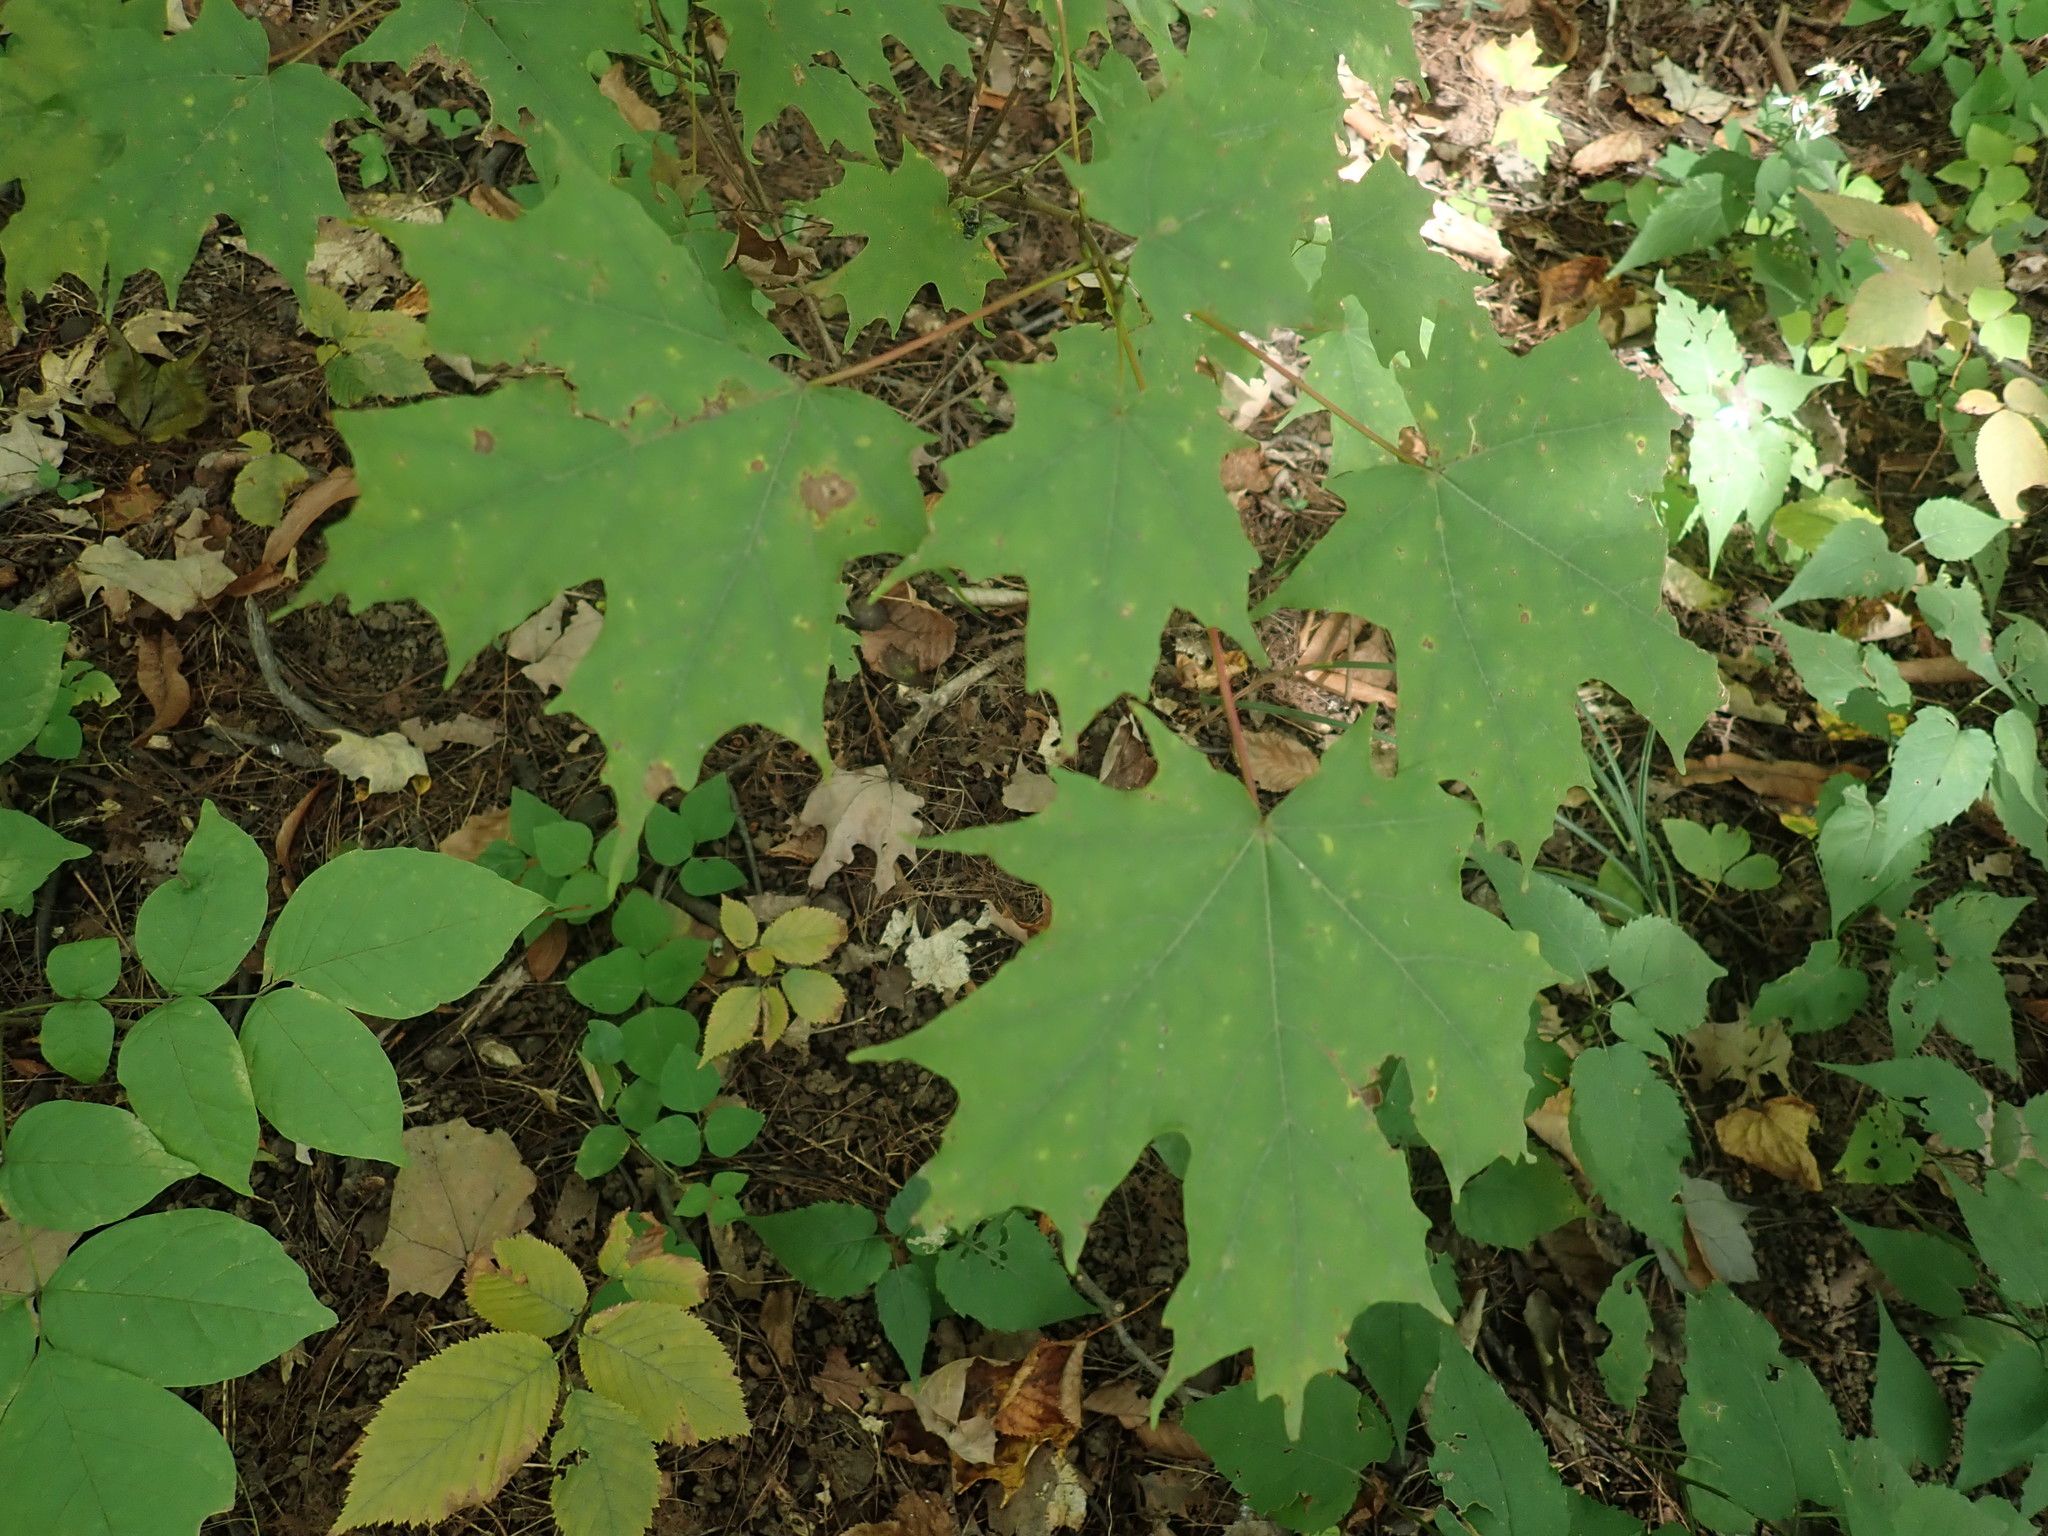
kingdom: Plantae
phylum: Tracheophyta
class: Magnoliopsida
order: Sapindales
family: Sapindaceae
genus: Acer
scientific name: Acer saccharum
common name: Sugar maple
